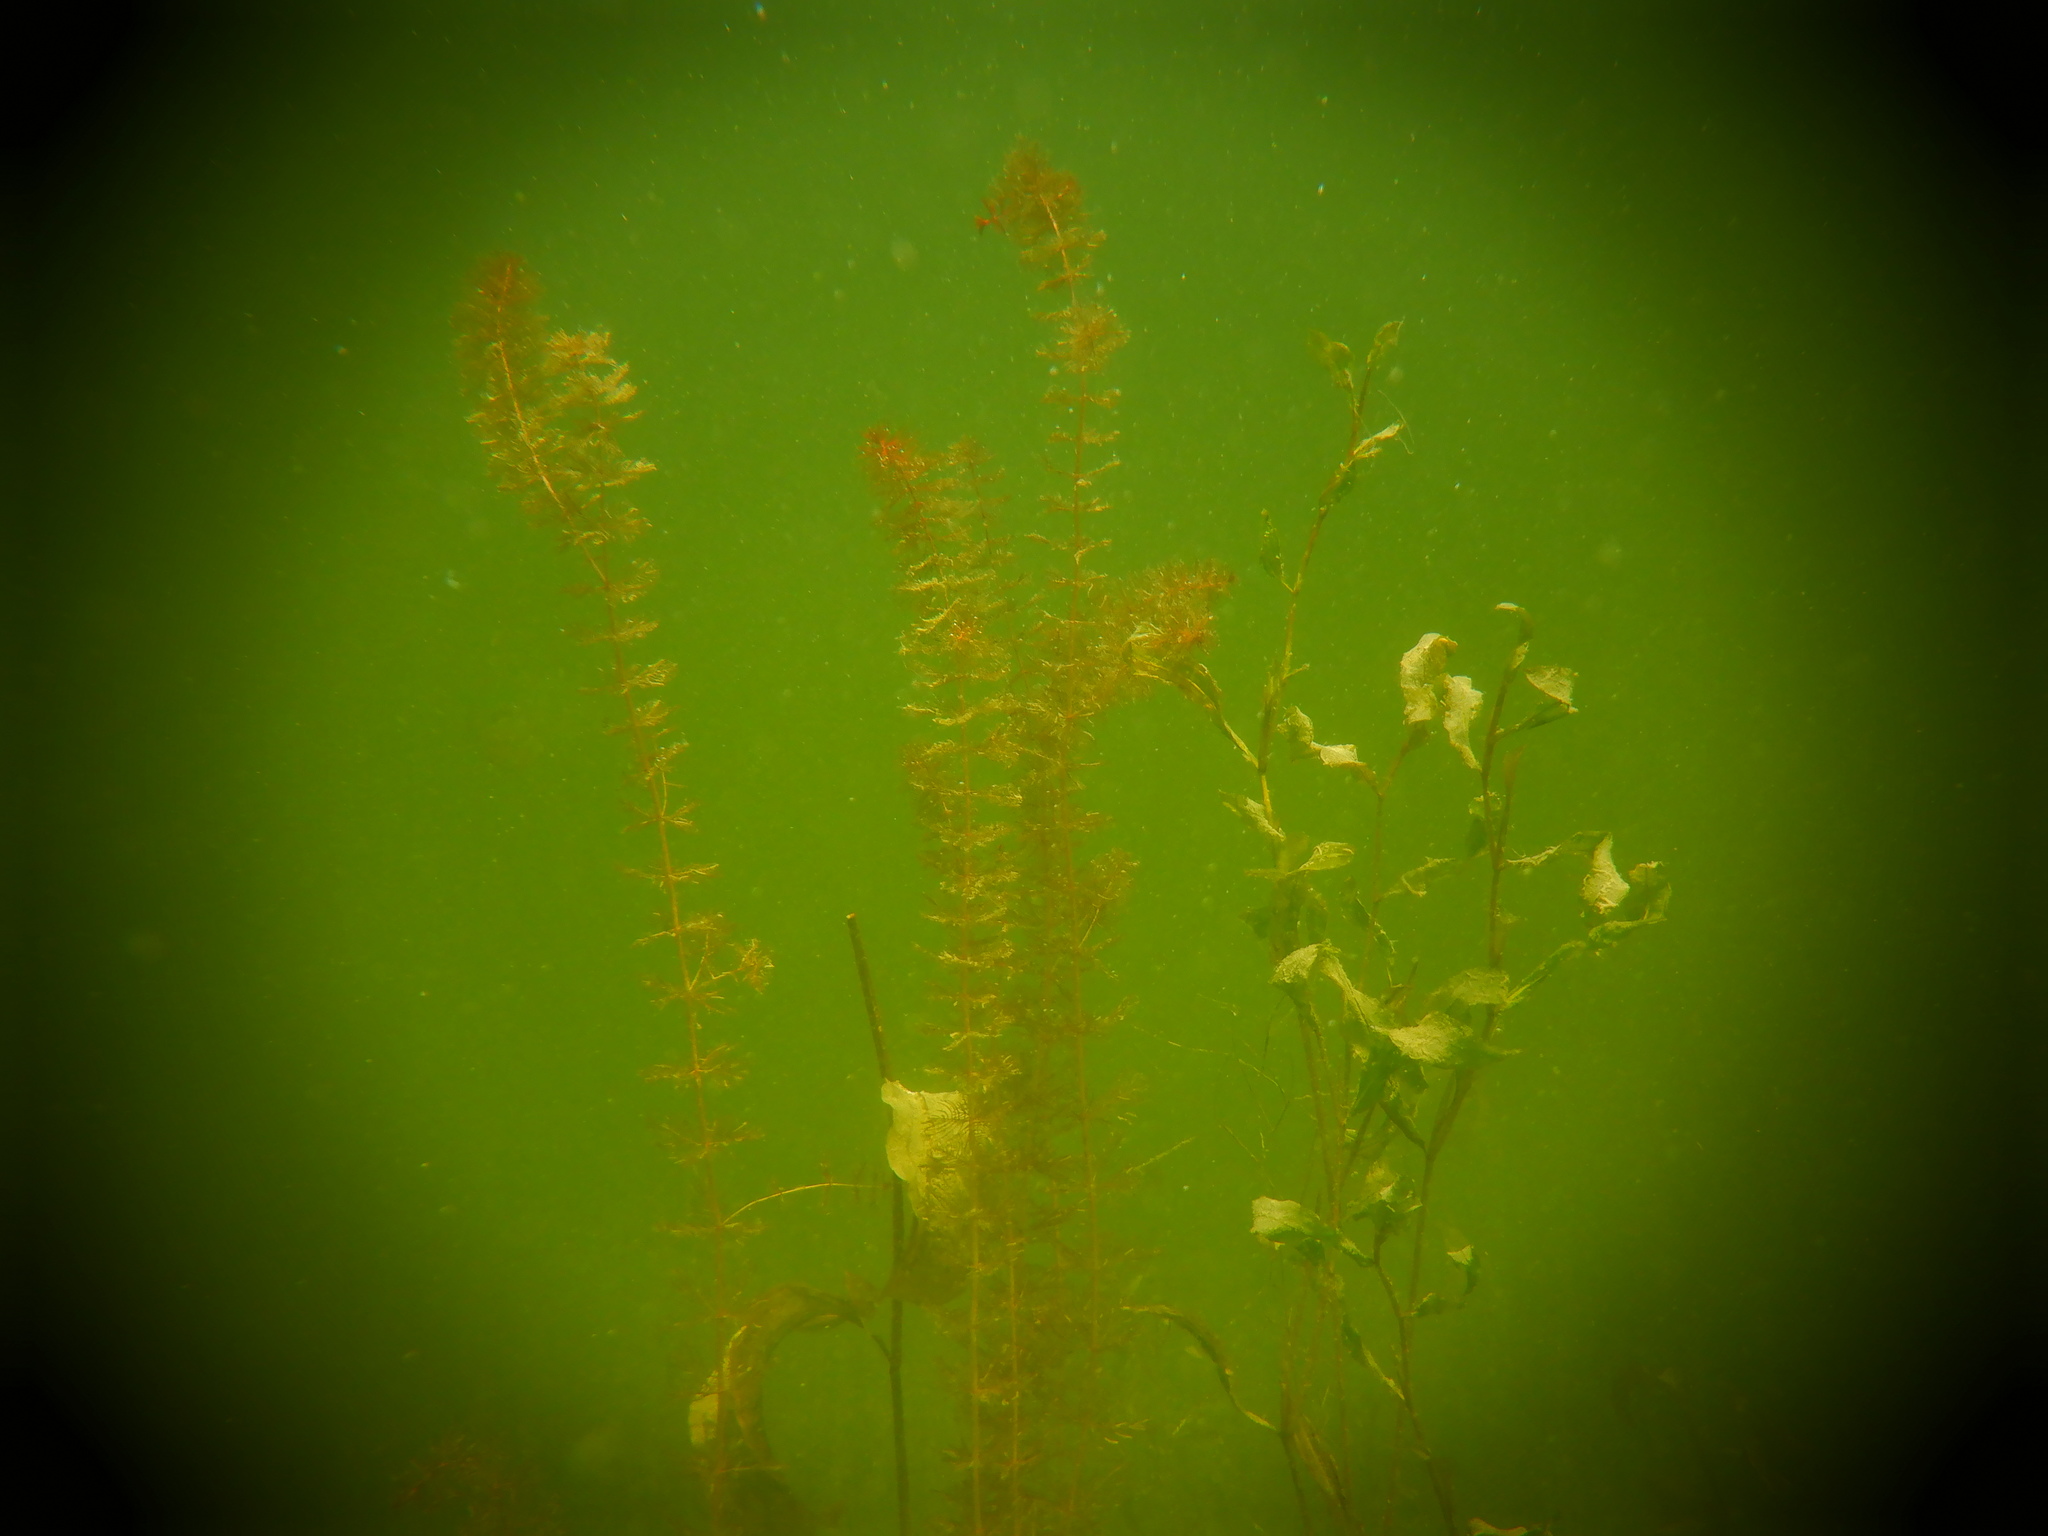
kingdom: Plantae
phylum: Tracheophyta
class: Magnoliopsida
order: Saxifragales
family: Haloragaceae
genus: Myriophyllum
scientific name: Myriophyllum sibiricum
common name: Siberian water-milfoil
